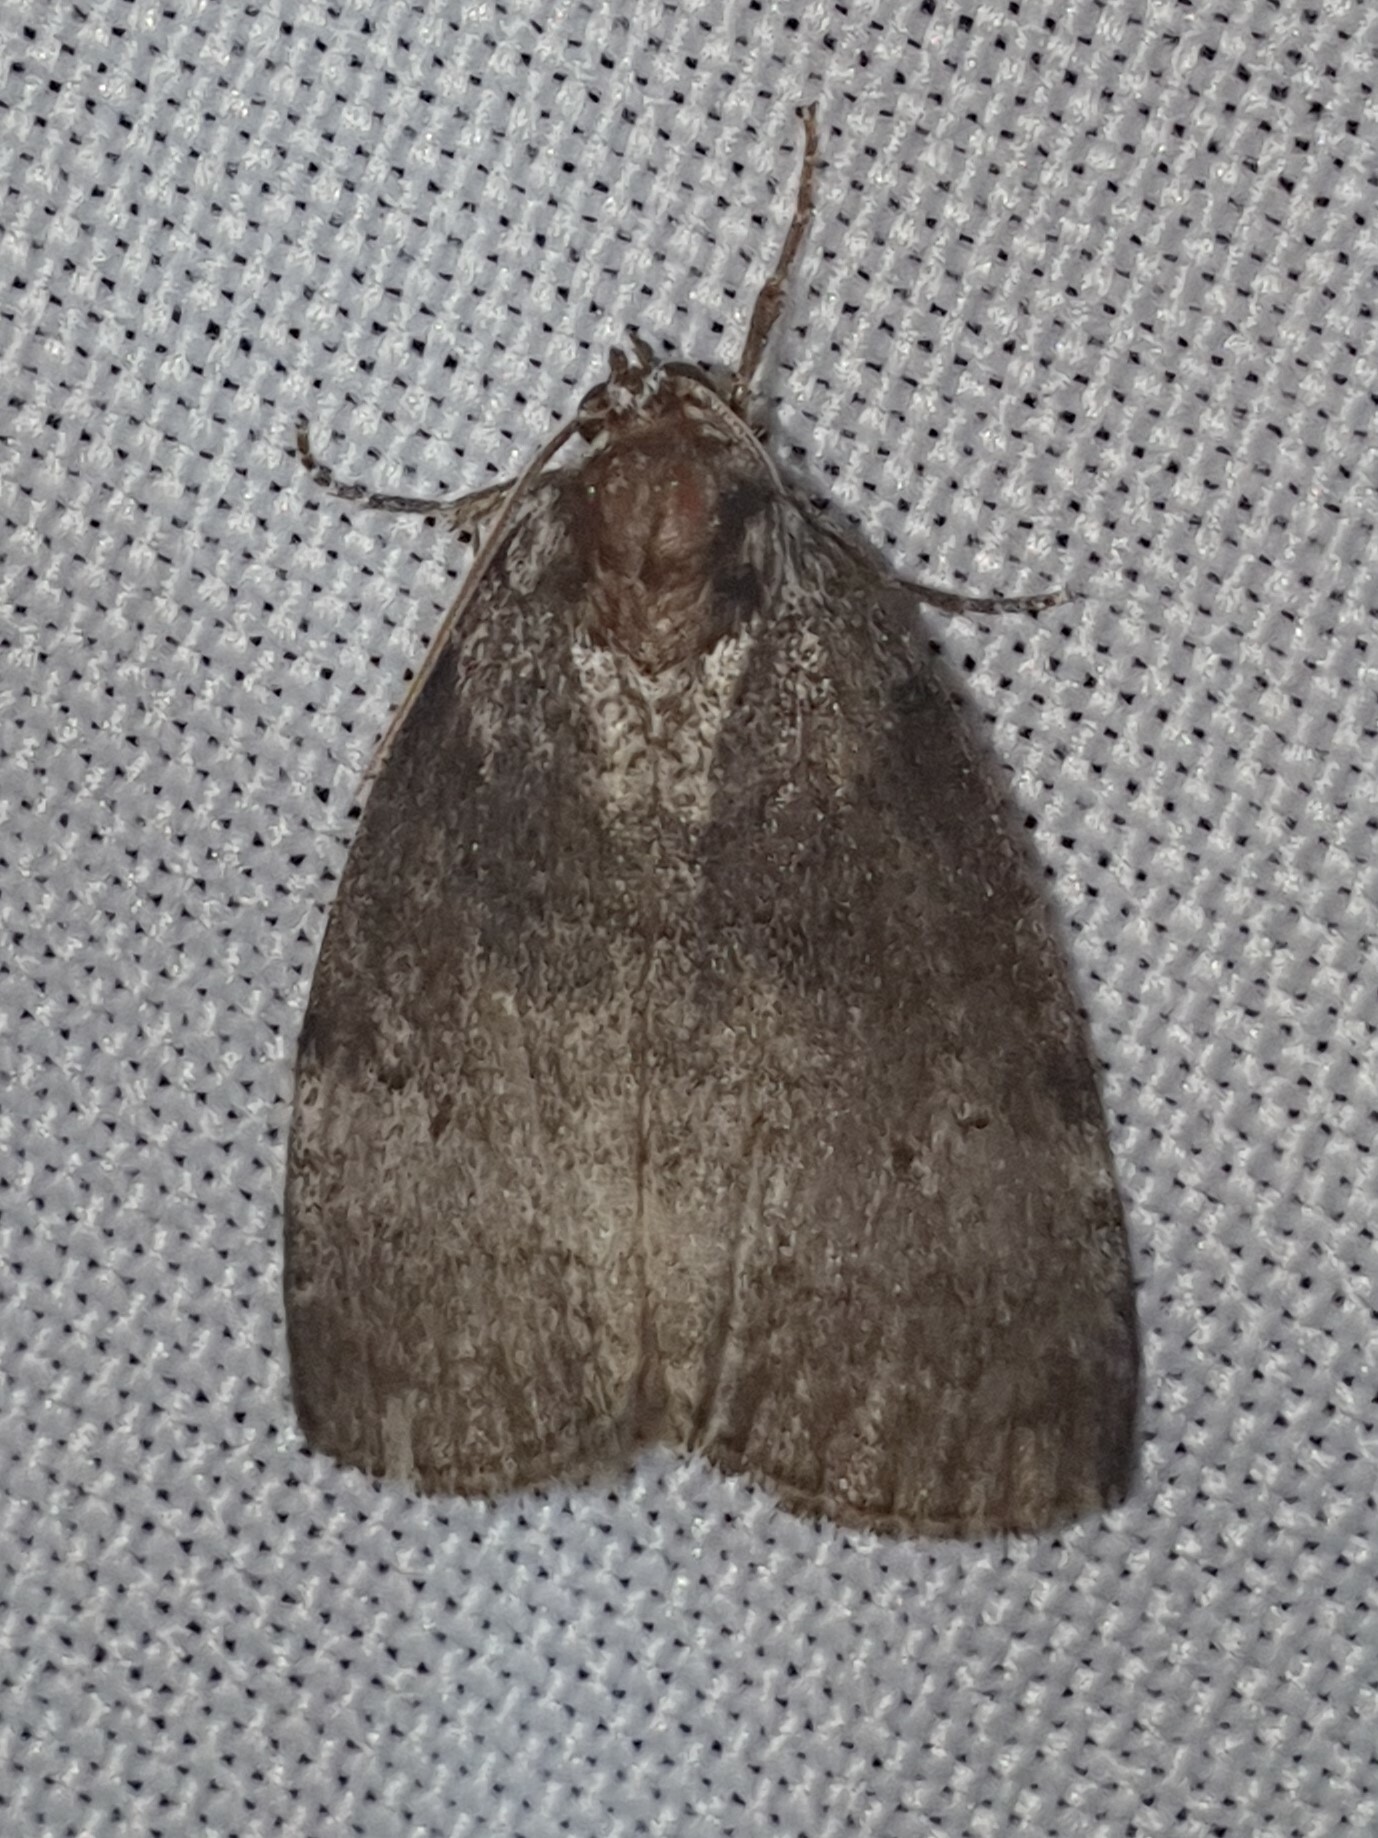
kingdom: Animalia
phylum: Arthropoda
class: Insecta
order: Lepidoptera
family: Drepanidae
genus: Ochropacha
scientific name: Ochropacha duplaris
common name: Common lutestring
